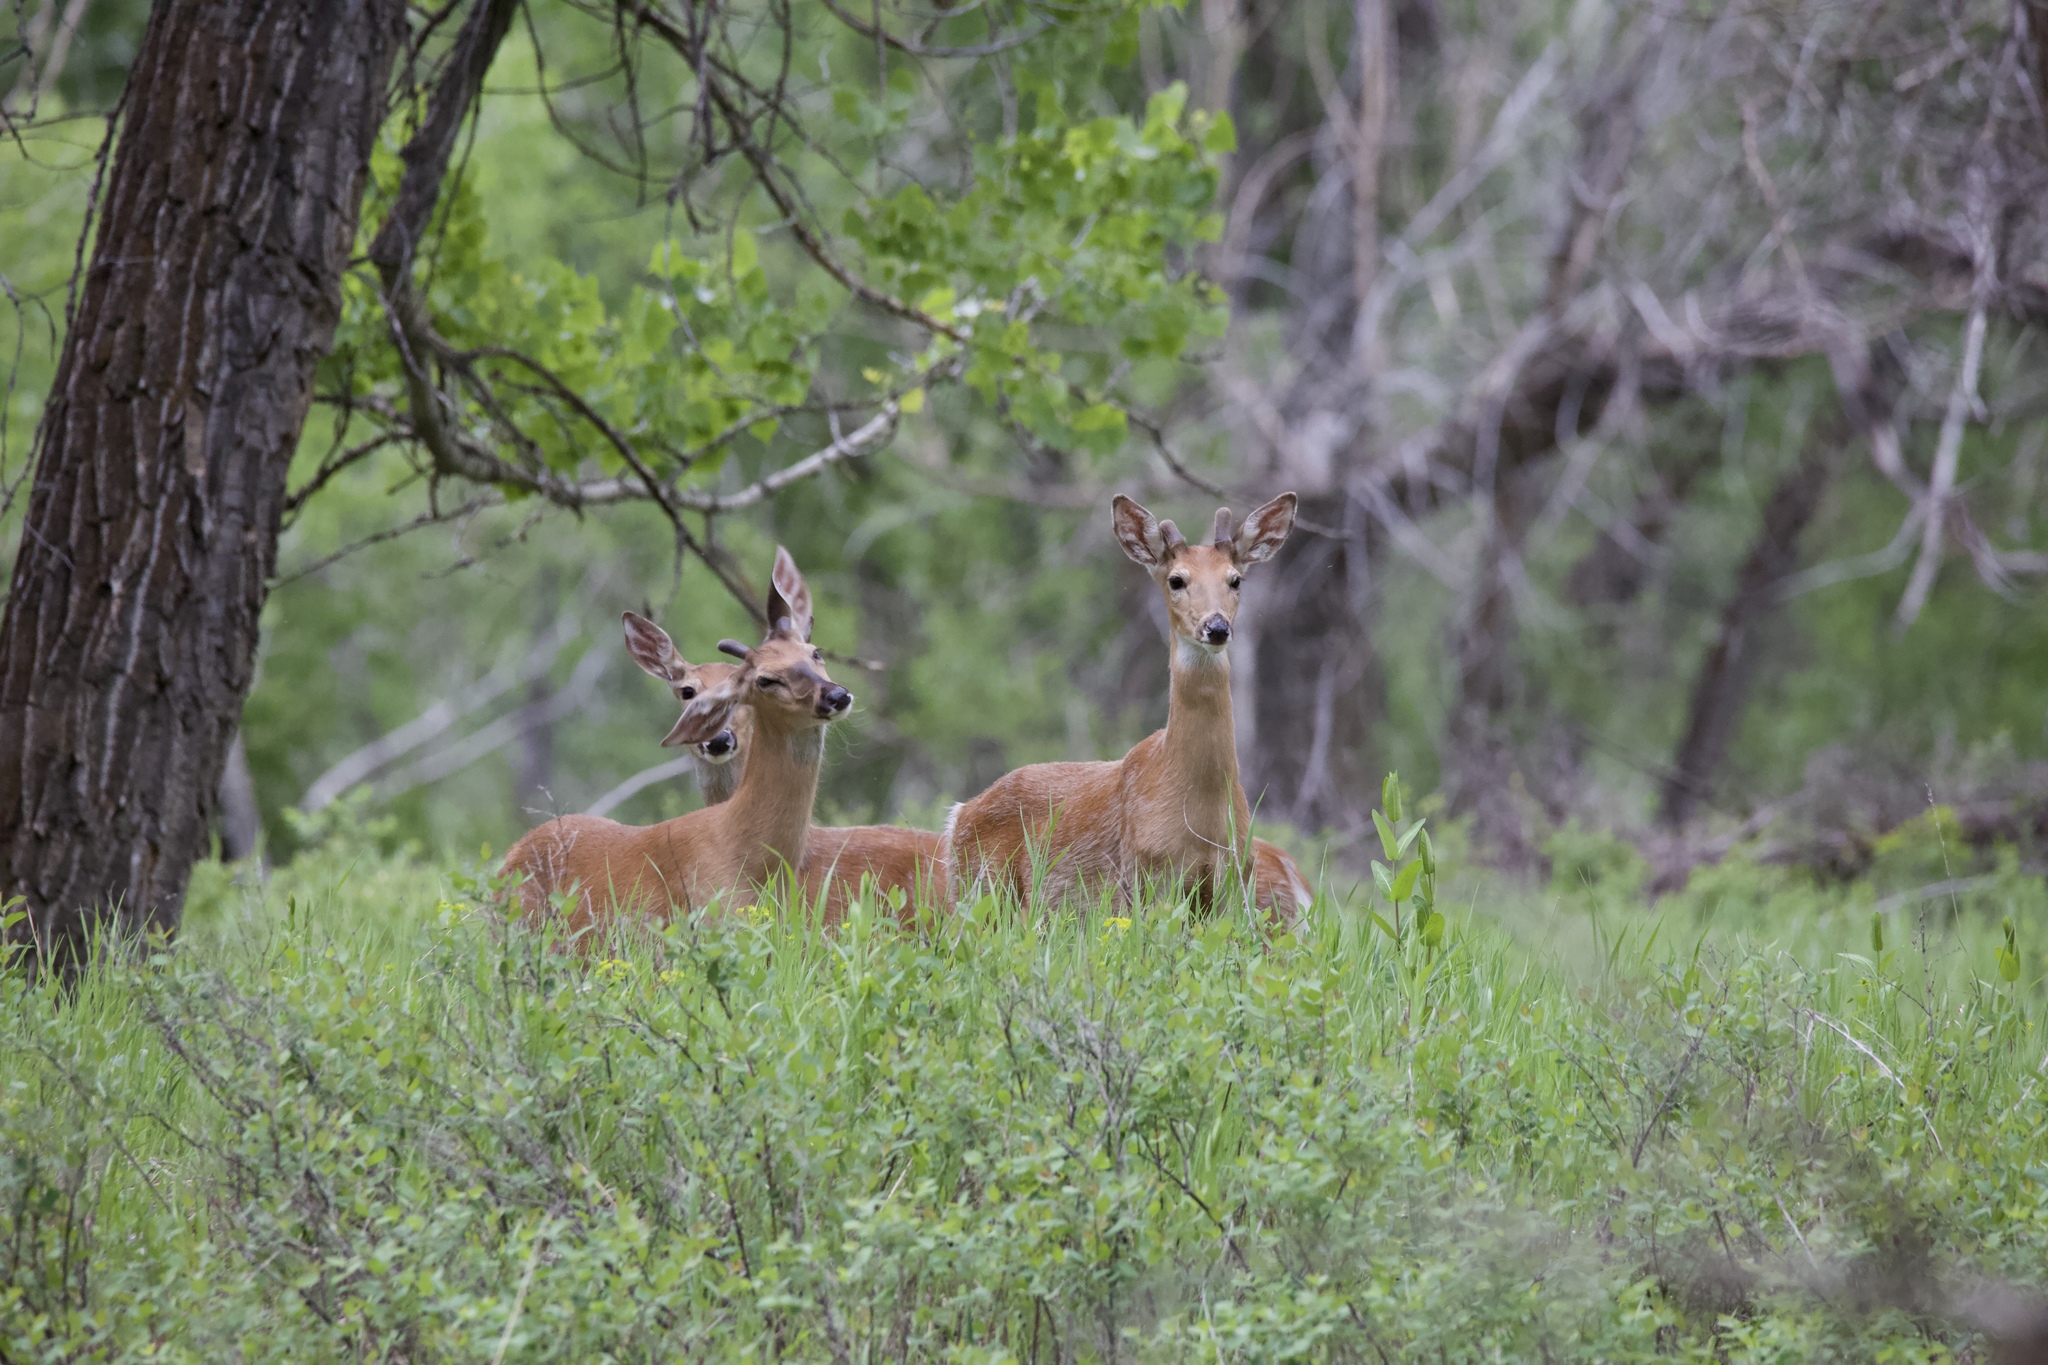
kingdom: Animalia
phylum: Chordata
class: Mammalia
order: Artiodactyla
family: Cervidae
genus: Odocoileus
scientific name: Odocoileus virginianus
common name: White-tailed deer
